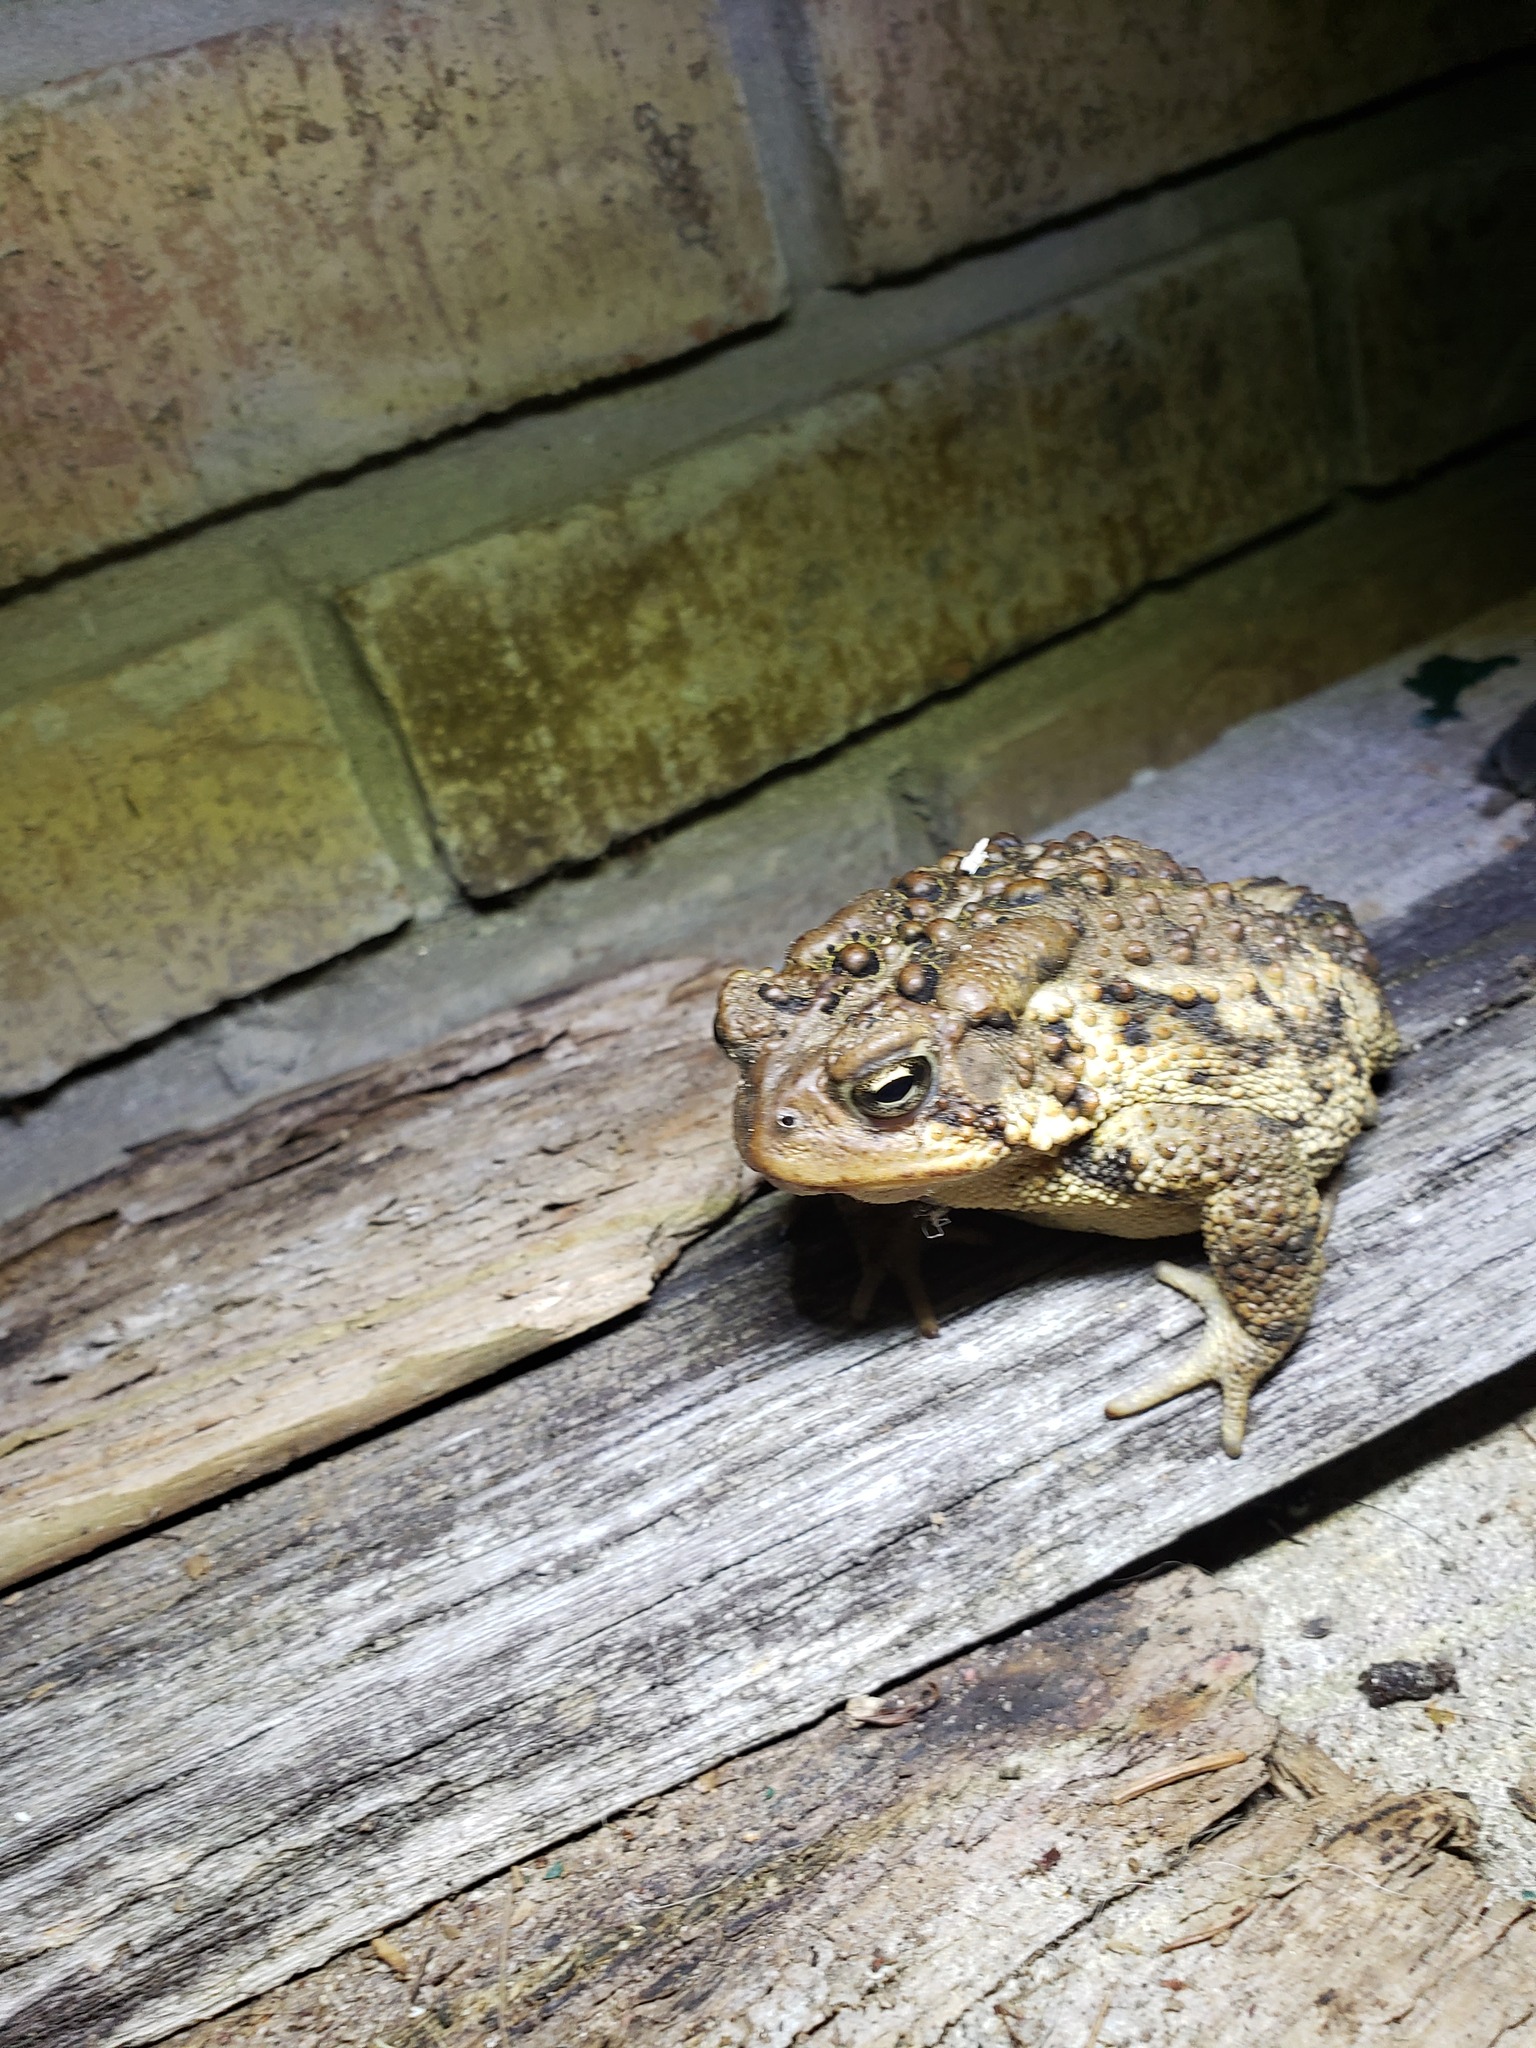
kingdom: Animalia
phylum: Chordata
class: Amphibia
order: Anura
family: Bufonidae
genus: Anaxyrus
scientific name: Anaxyrus americanus
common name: American toad
